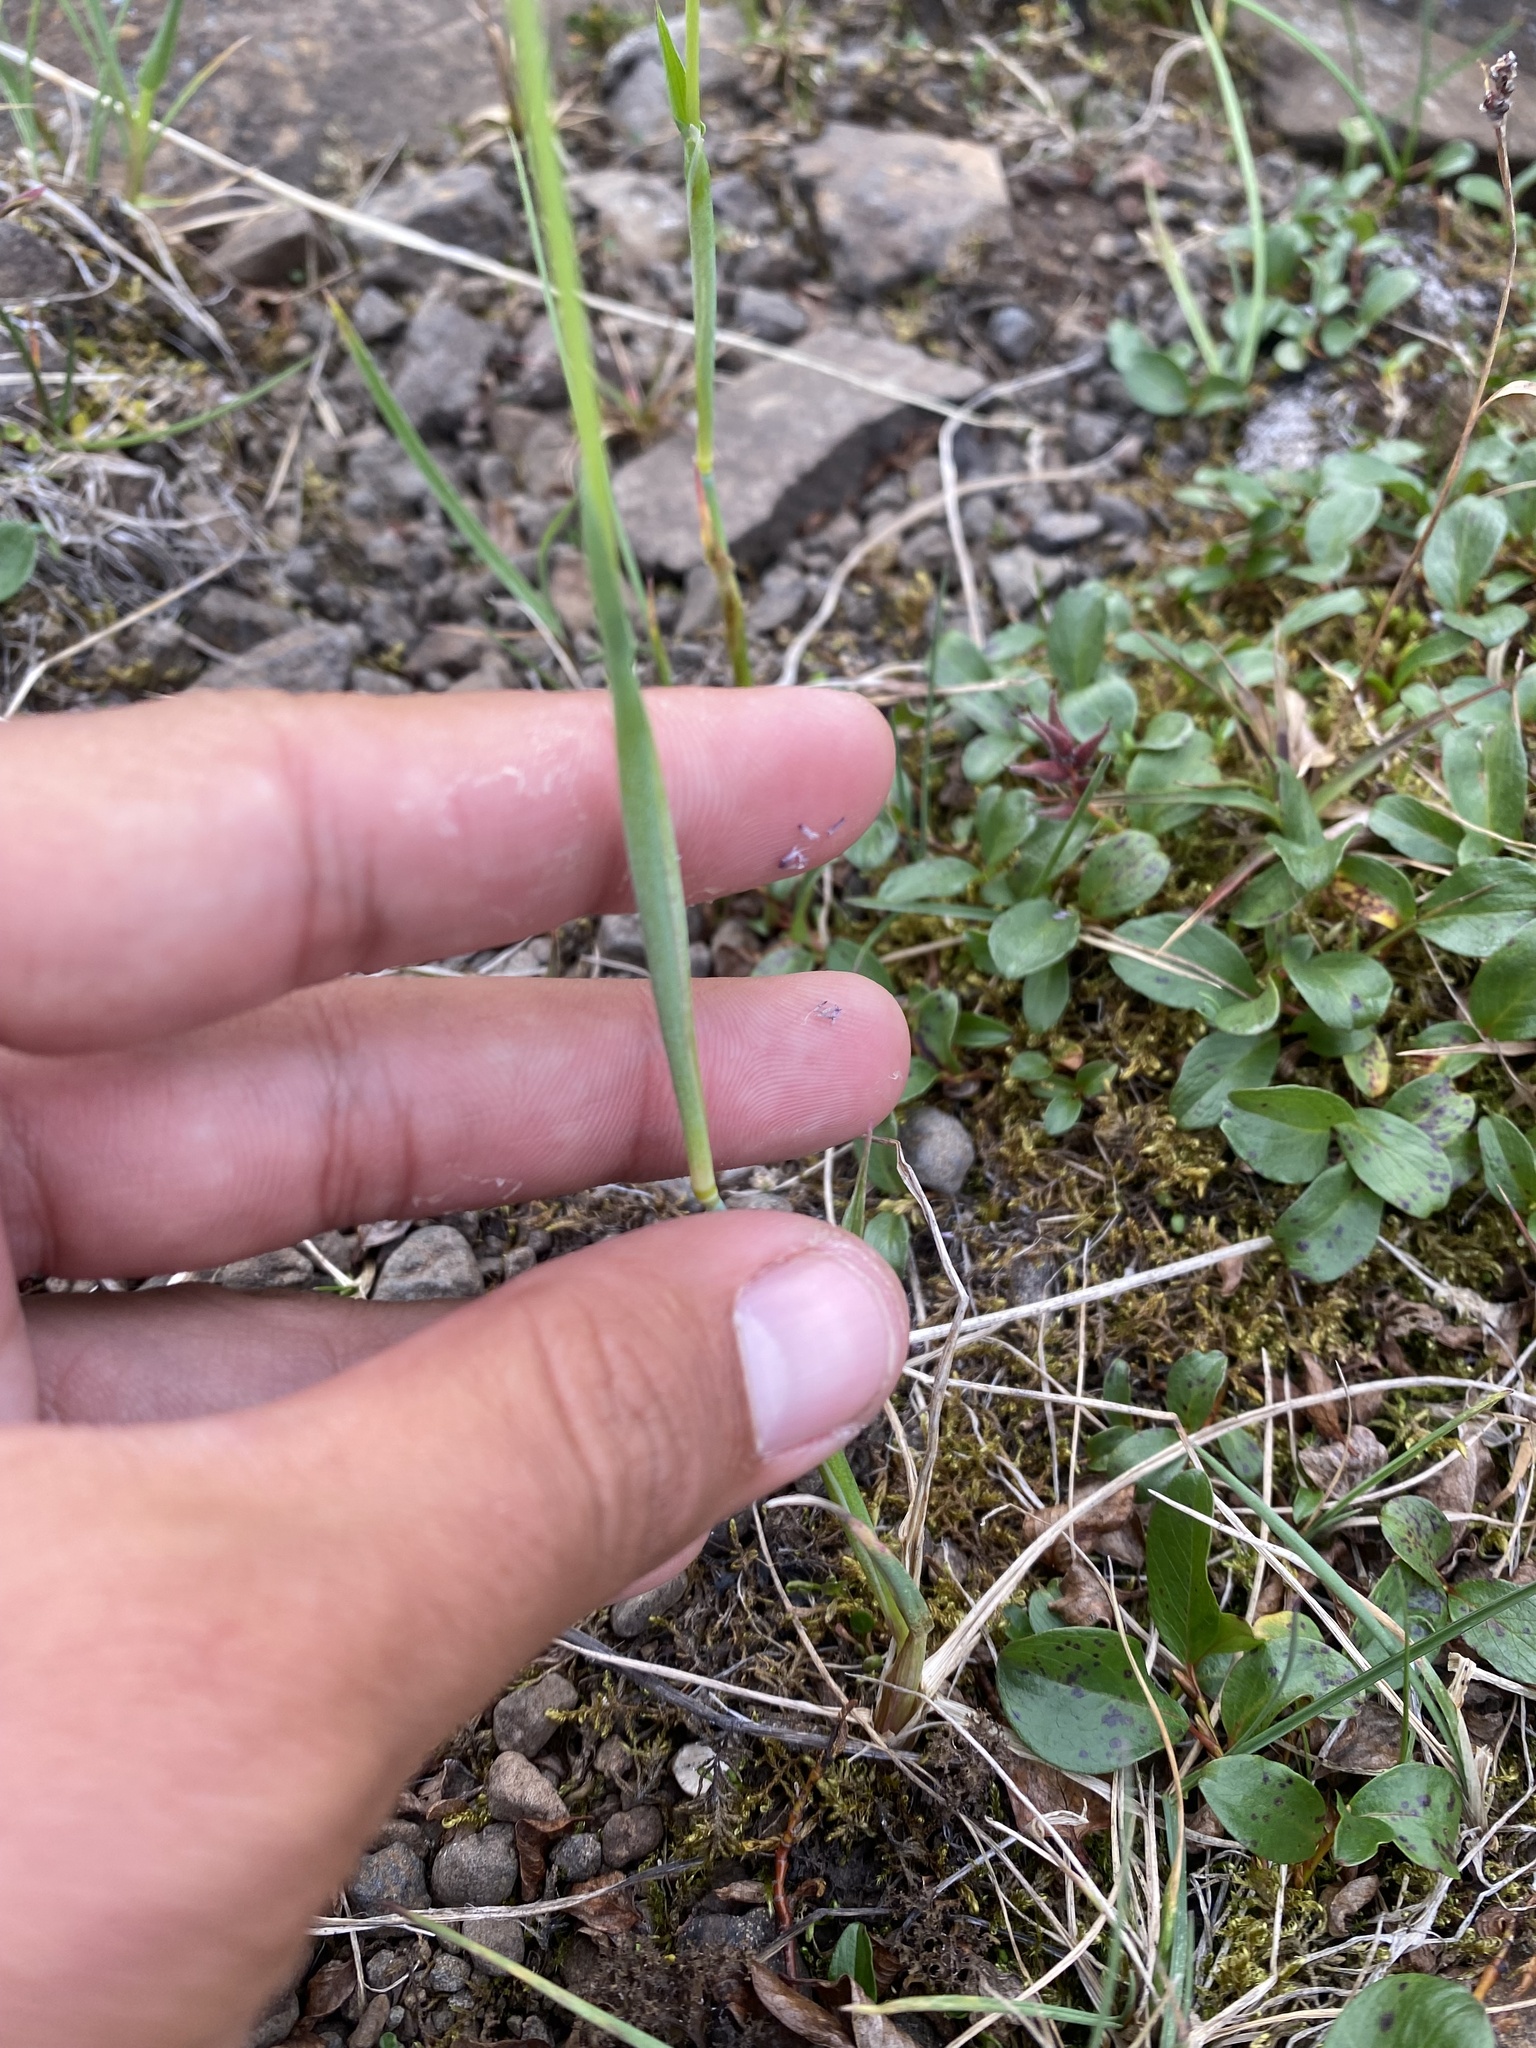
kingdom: Plantae
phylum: Tracheophyta
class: Liliopsida
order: Poales
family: Poaceae
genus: Alopecurus
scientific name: Alopecurus magellanicus
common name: Alpine foxtail
